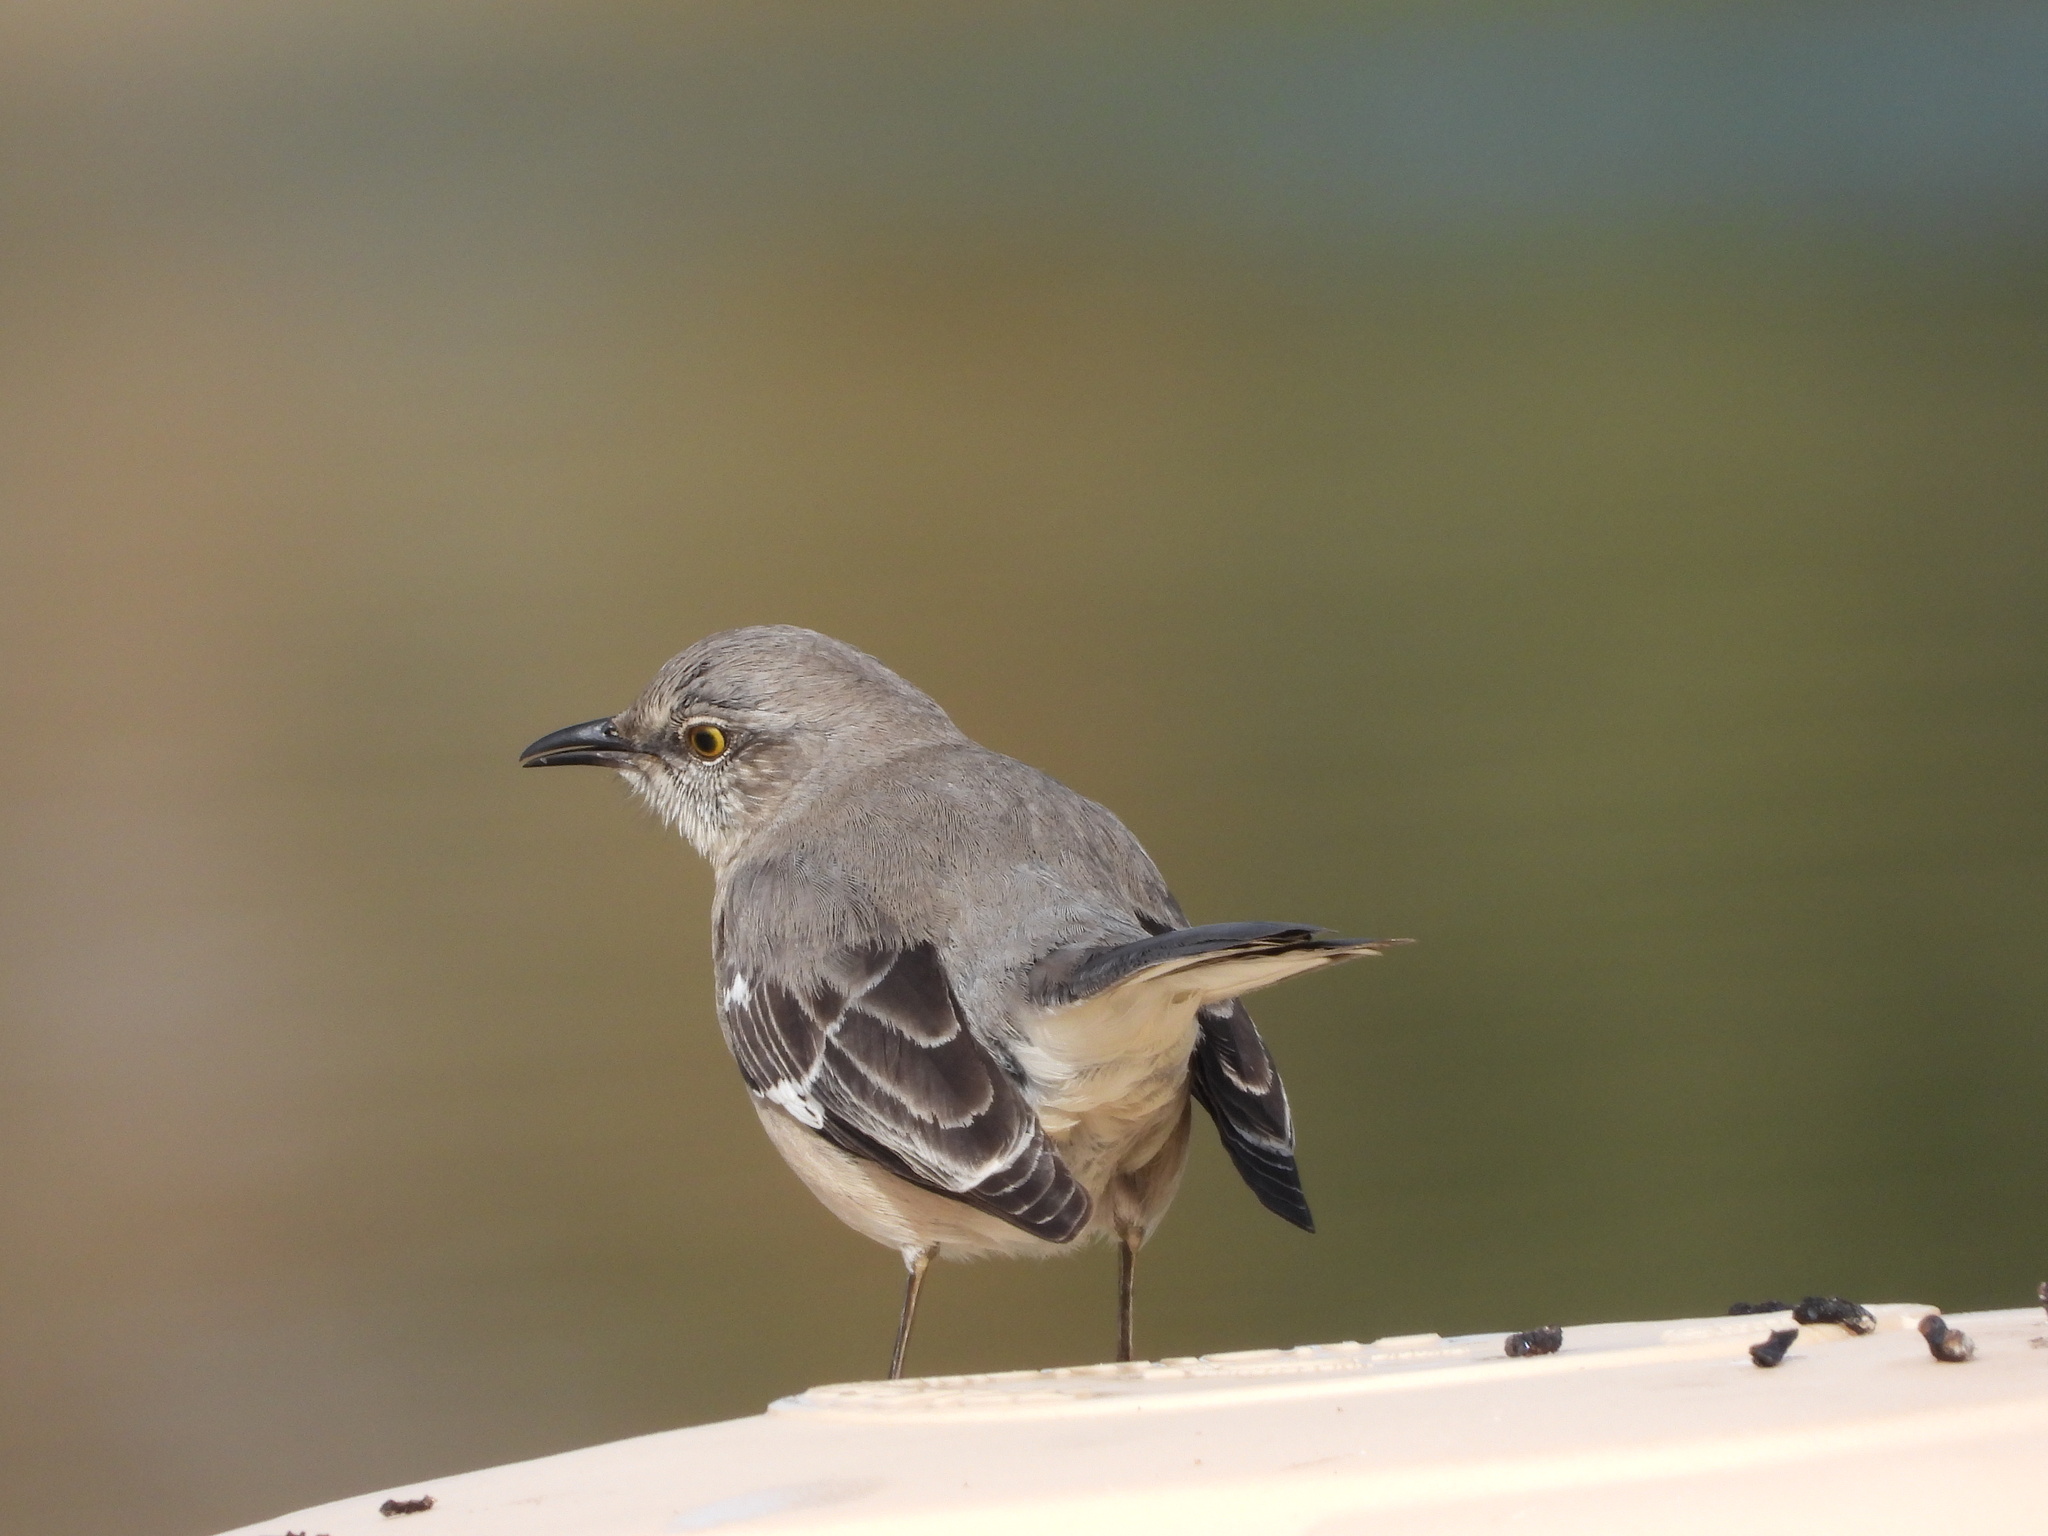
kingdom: Animalia
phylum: Chordata
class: Aves
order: Passeriformes
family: Mimidae
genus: Mimus
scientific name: Mimus polyglottos
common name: Northern mockingbird
